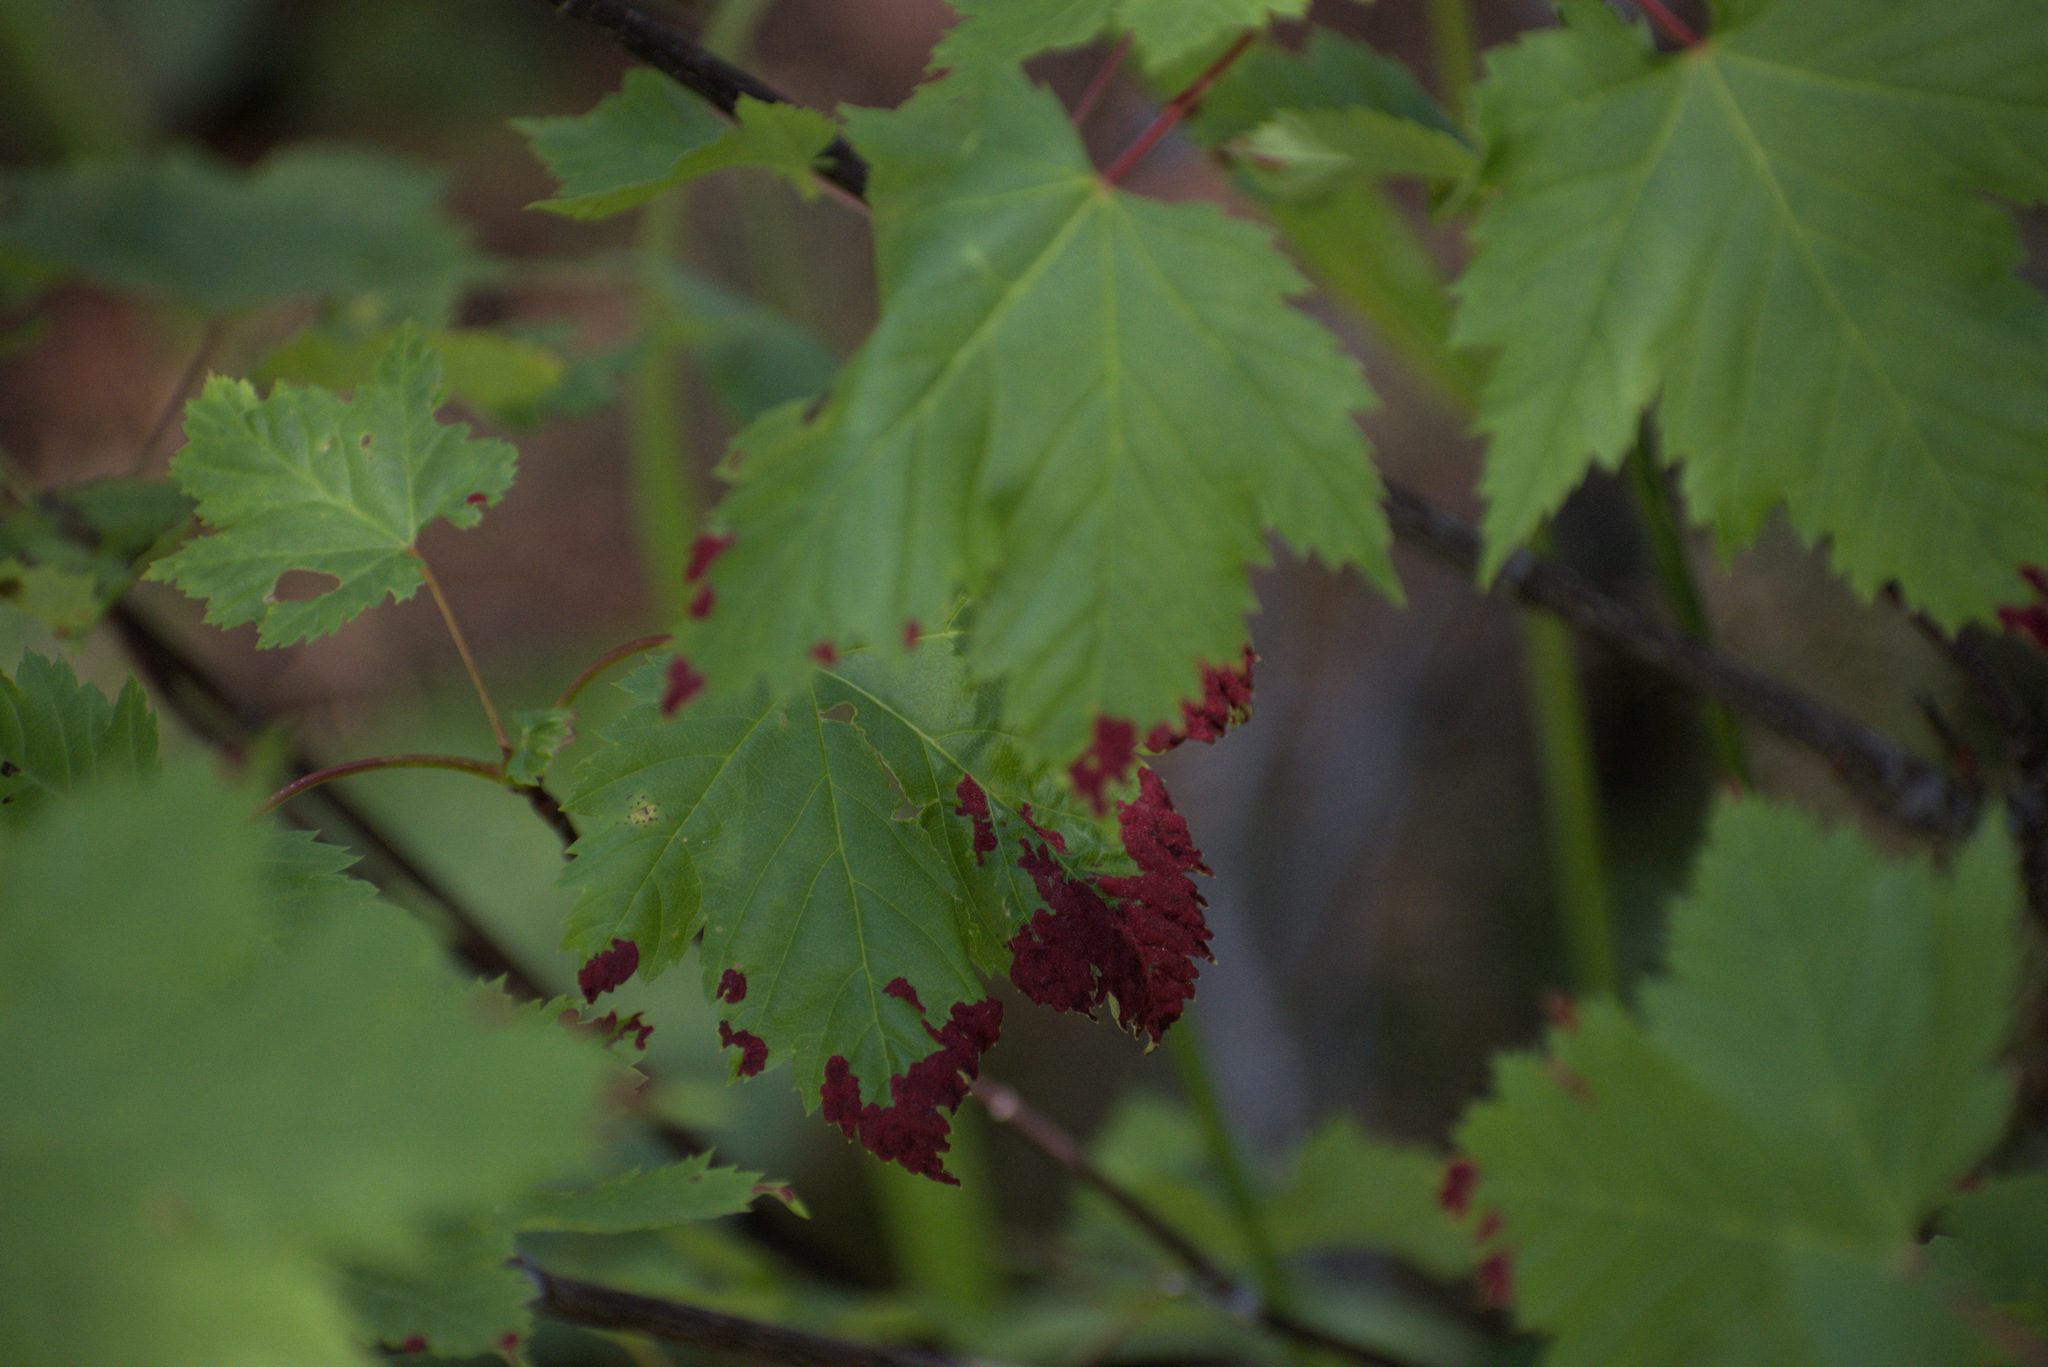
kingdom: Animalia
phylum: Arthropoda
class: Arachnida
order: Trombidiformes
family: Eriophyidae
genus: Aceria
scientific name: Aceria
